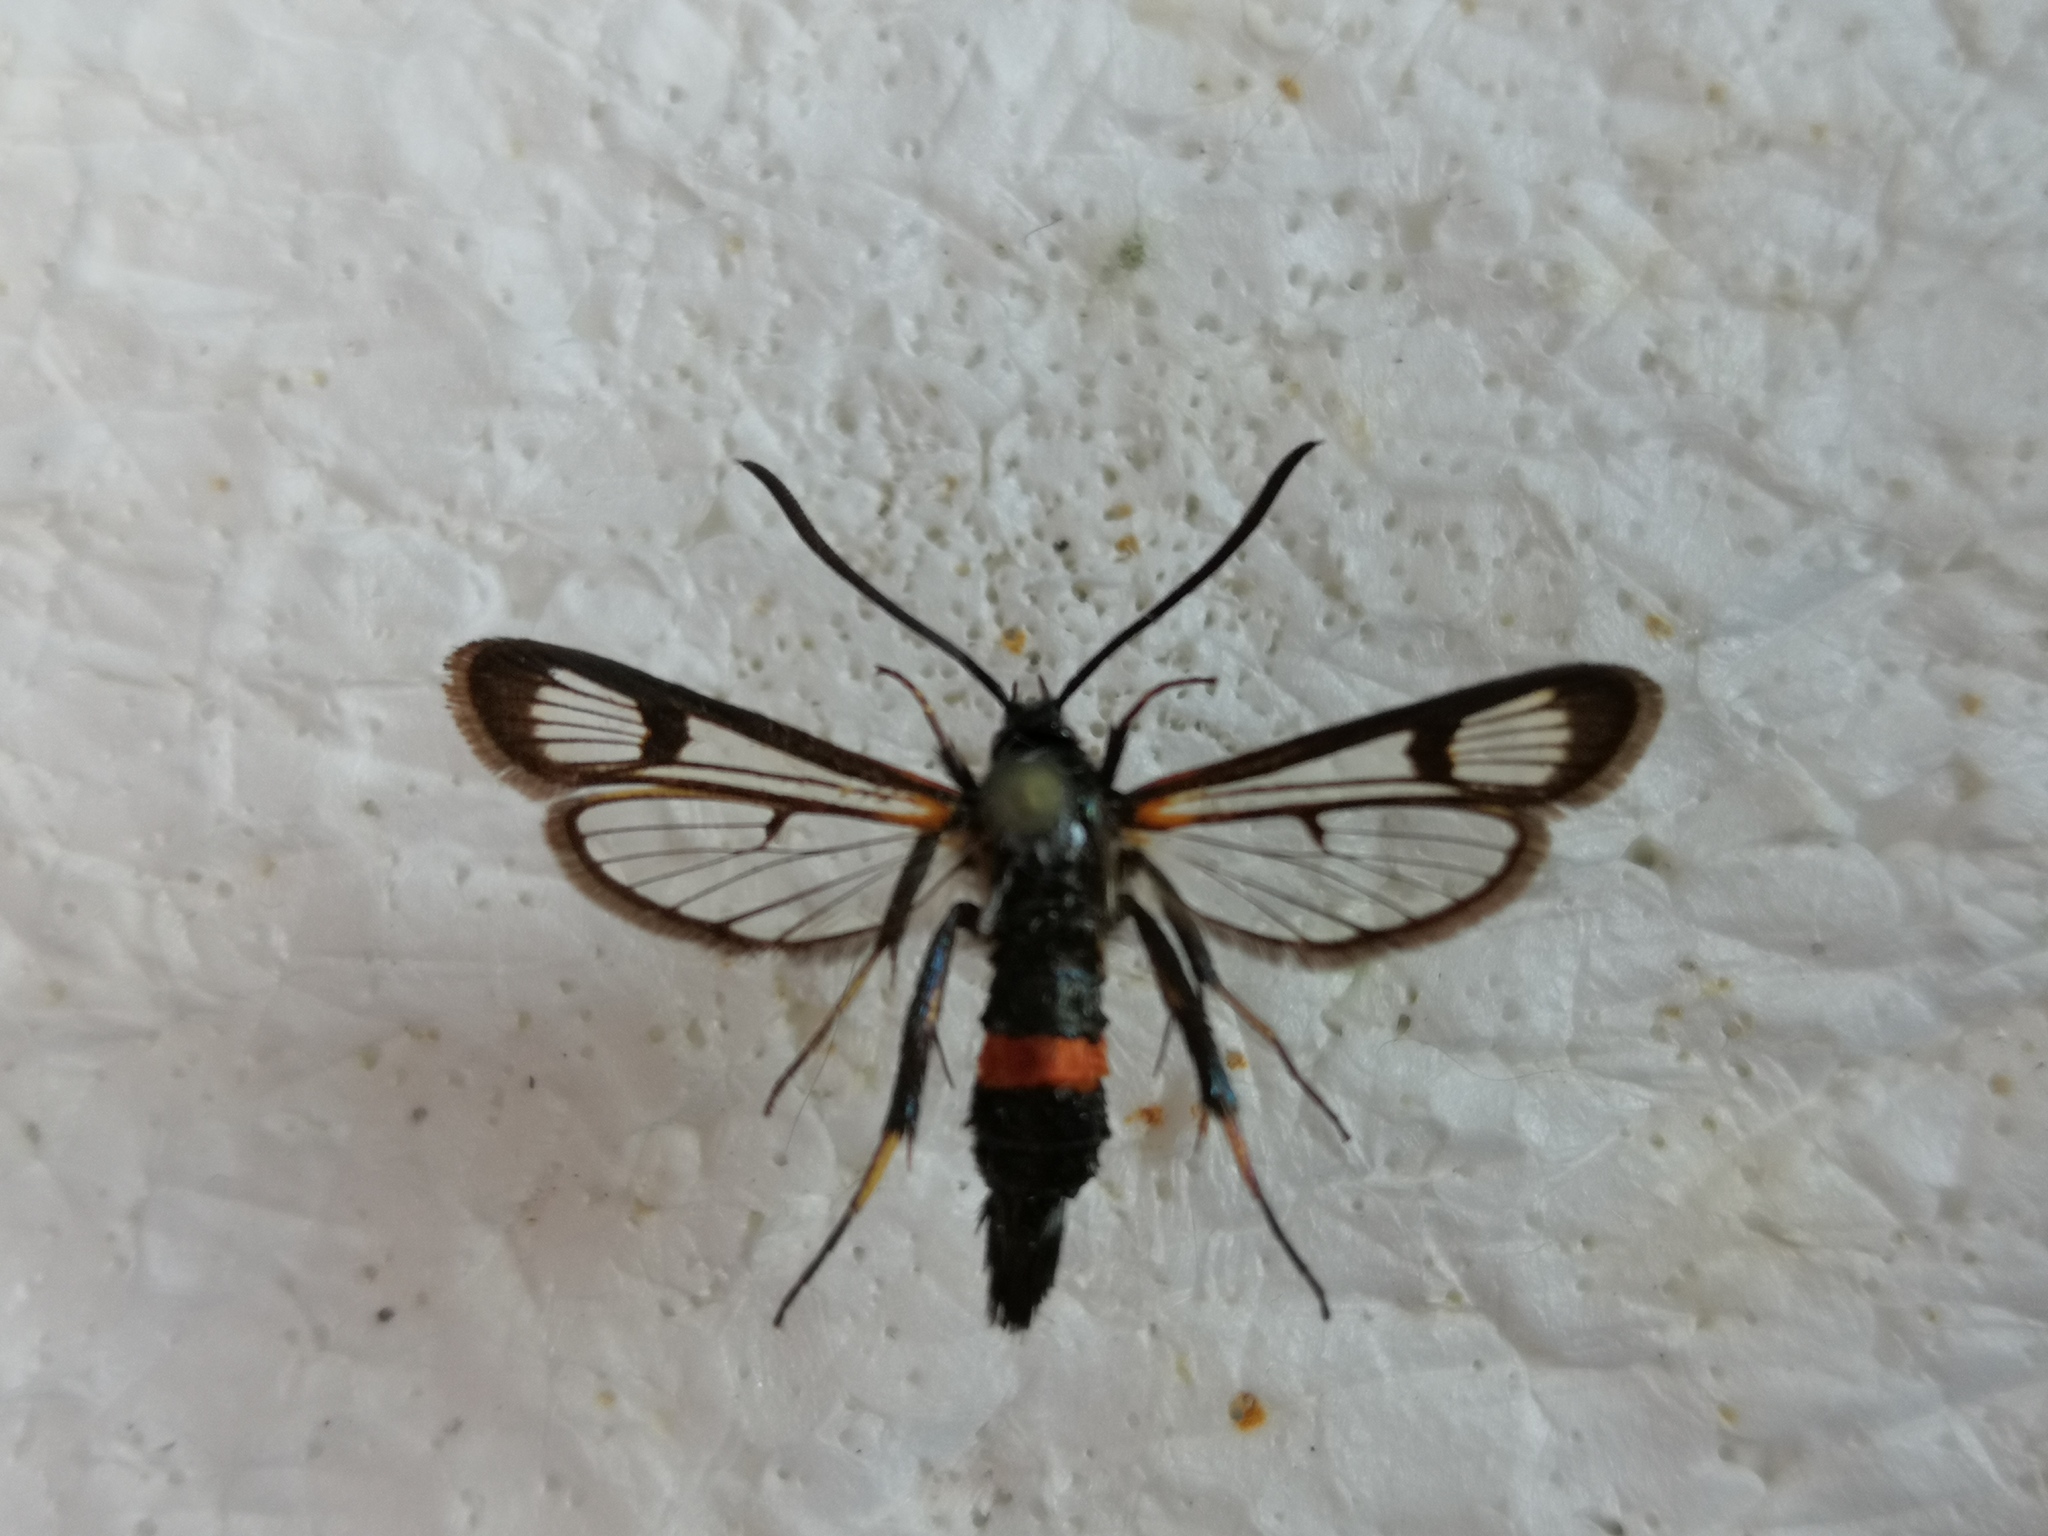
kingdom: Animalia
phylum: Arthropoda
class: Insecta
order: Lepidoptera
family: Sesiidae
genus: Synanthedon
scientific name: Synanthedon culiciformis
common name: Large red-belted clearwing
